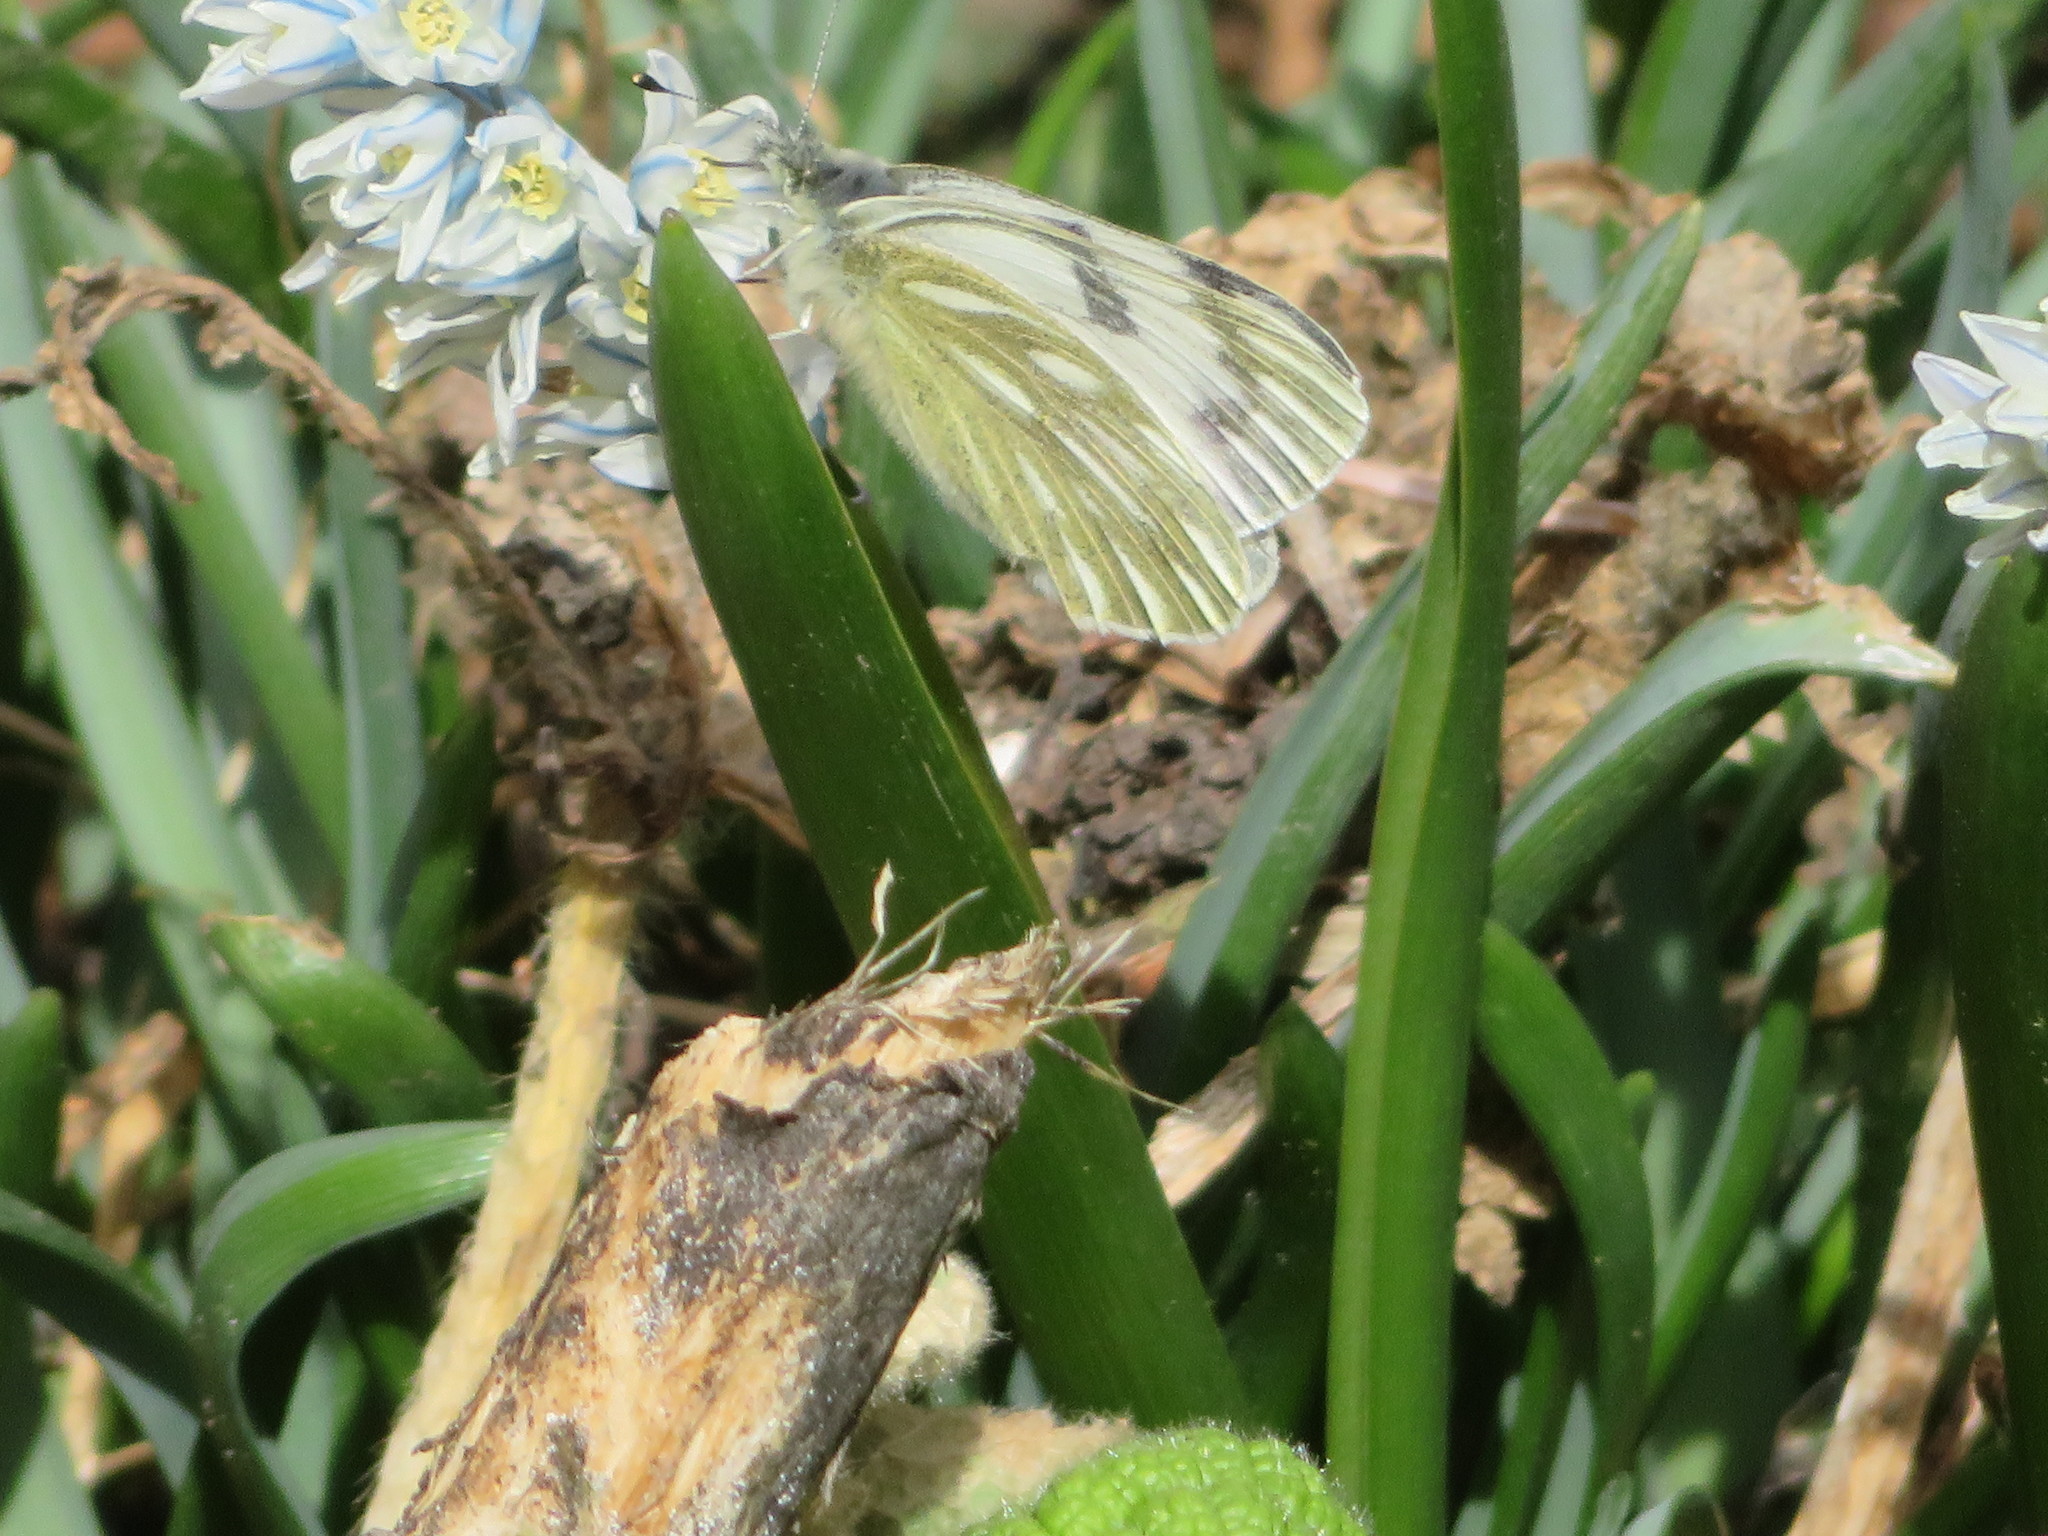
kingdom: Animalia
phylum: Arthropoda
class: Insecta
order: Lepidoptera
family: Pieridae
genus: Pontia
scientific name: Pontia occidentalis
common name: Western white
